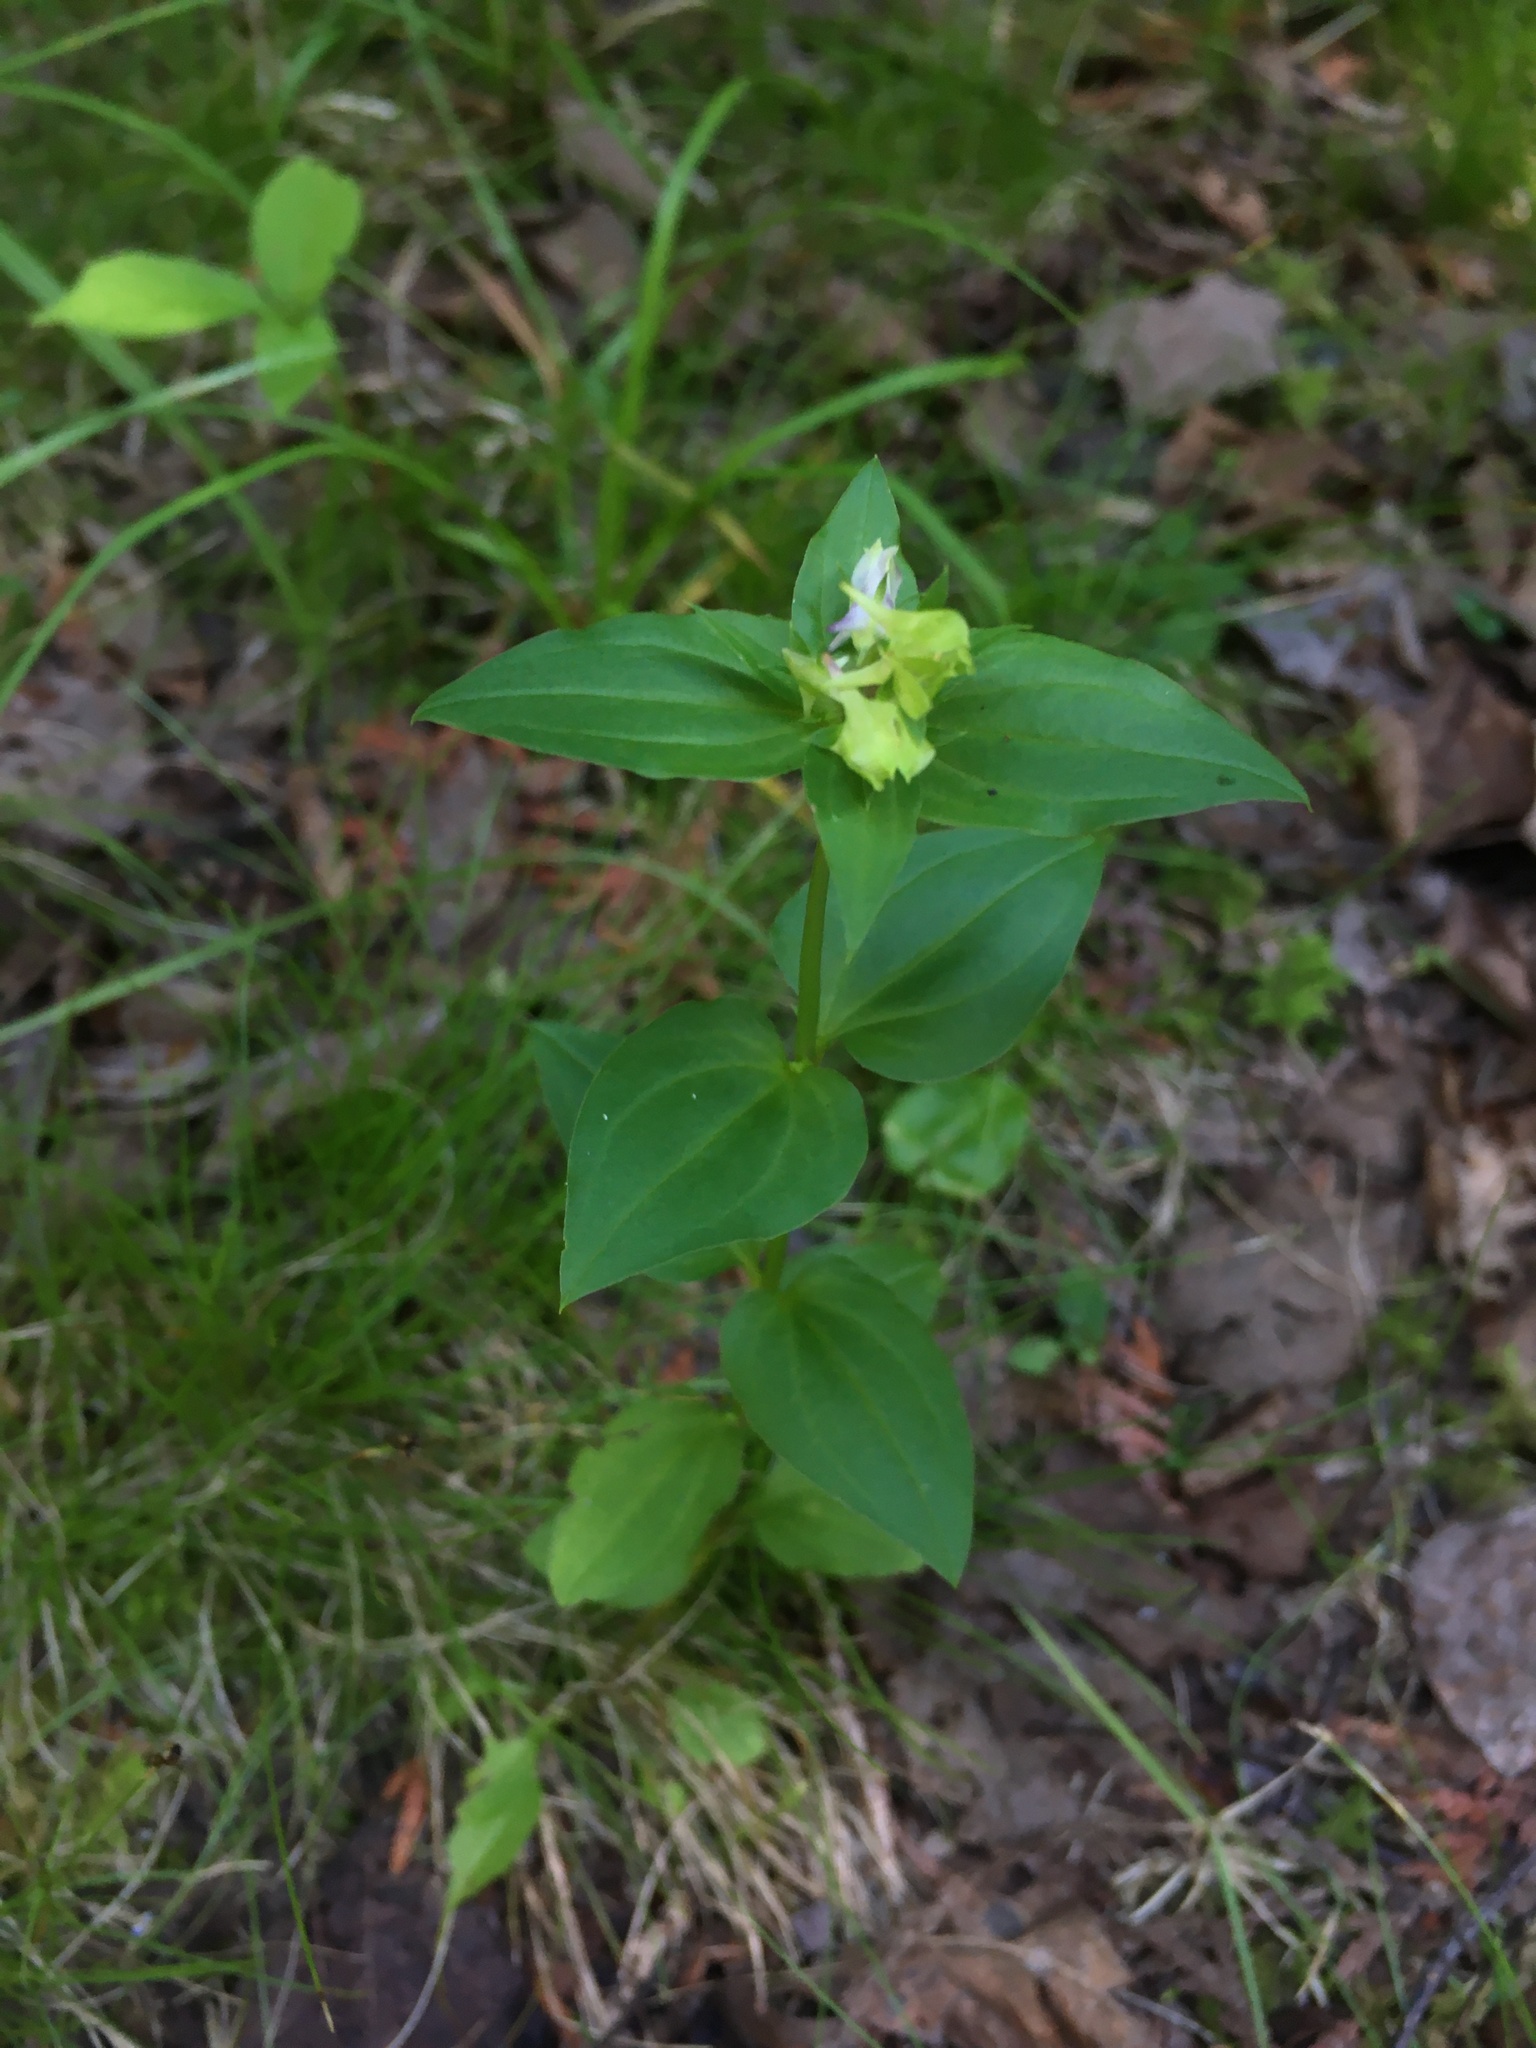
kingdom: Plantae
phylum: Tracheophyta
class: Magnoliopsida
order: Gentianales
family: Gentianaceae
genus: Halenia
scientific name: Halenia deflexa
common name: American spurred gentian
